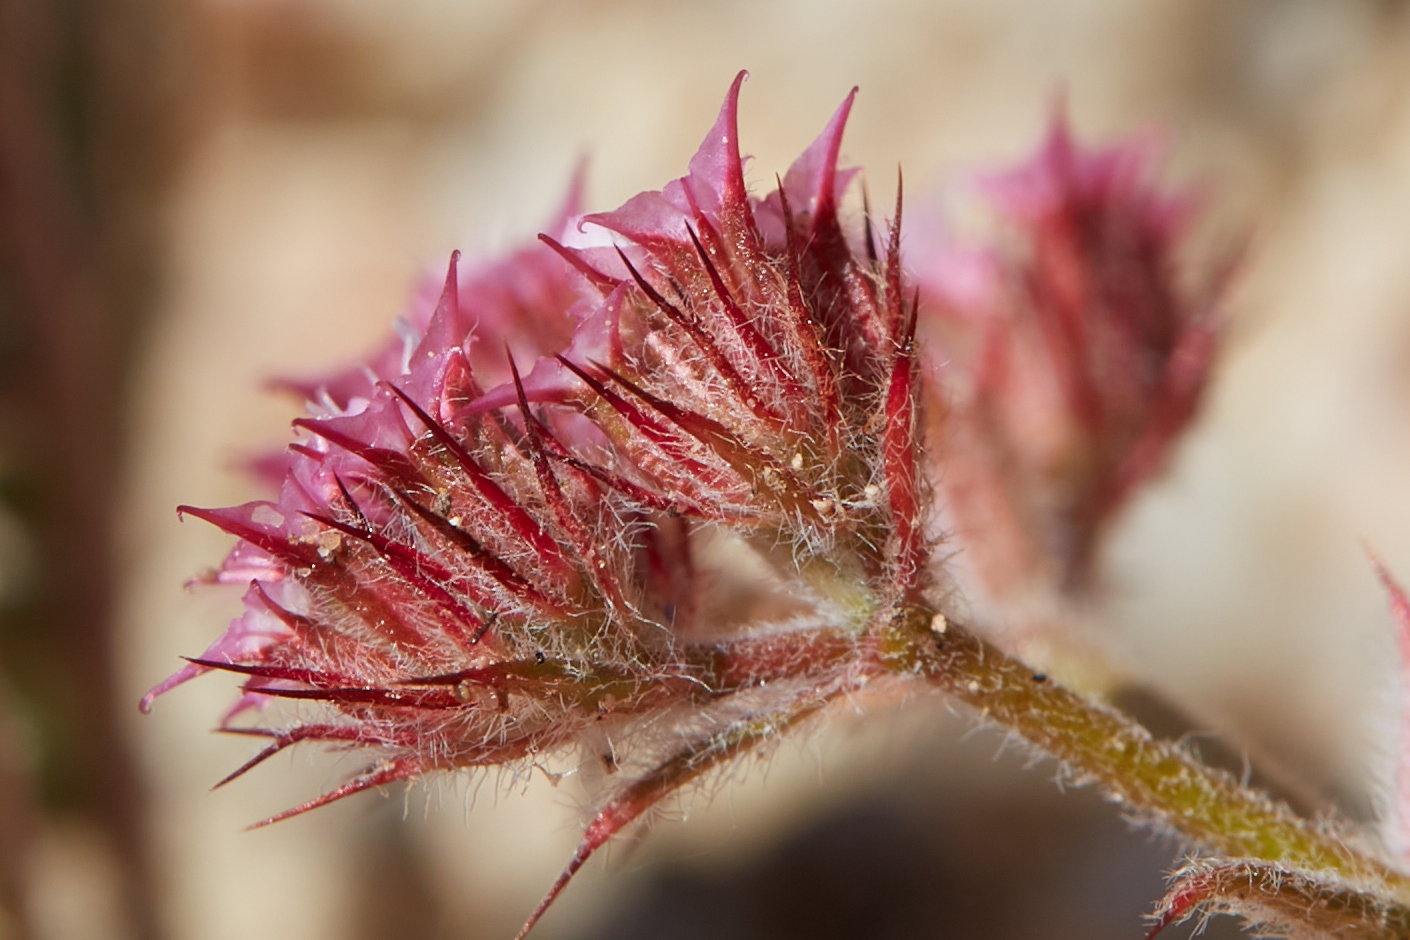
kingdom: Plantae
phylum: Tracheophyta
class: Magnoliopsida
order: Caryophyllales
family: Polygonaceae
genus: Chorizanthe
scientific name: Chorizanthe douglasii
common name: Douglas's spineflower
